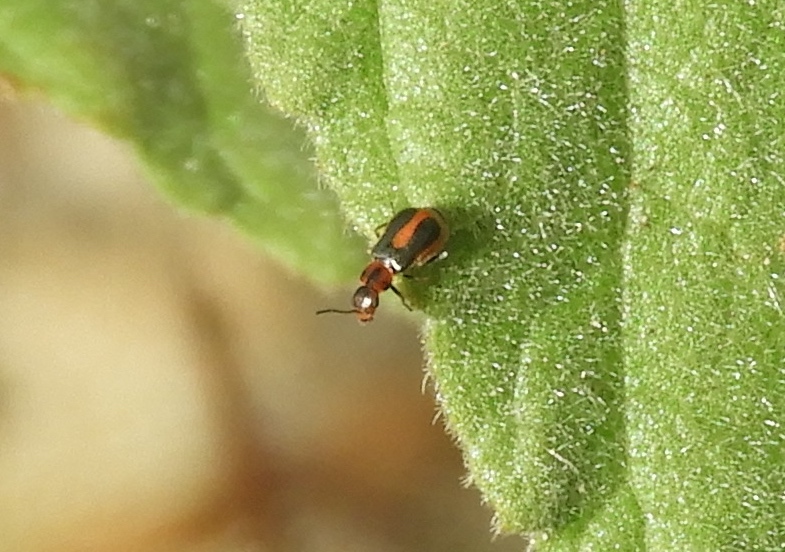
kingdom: Animalia
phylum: Arthropoda
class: Insecta
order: Coleoptera
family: Melyridae
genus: Collops
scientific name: Collops
